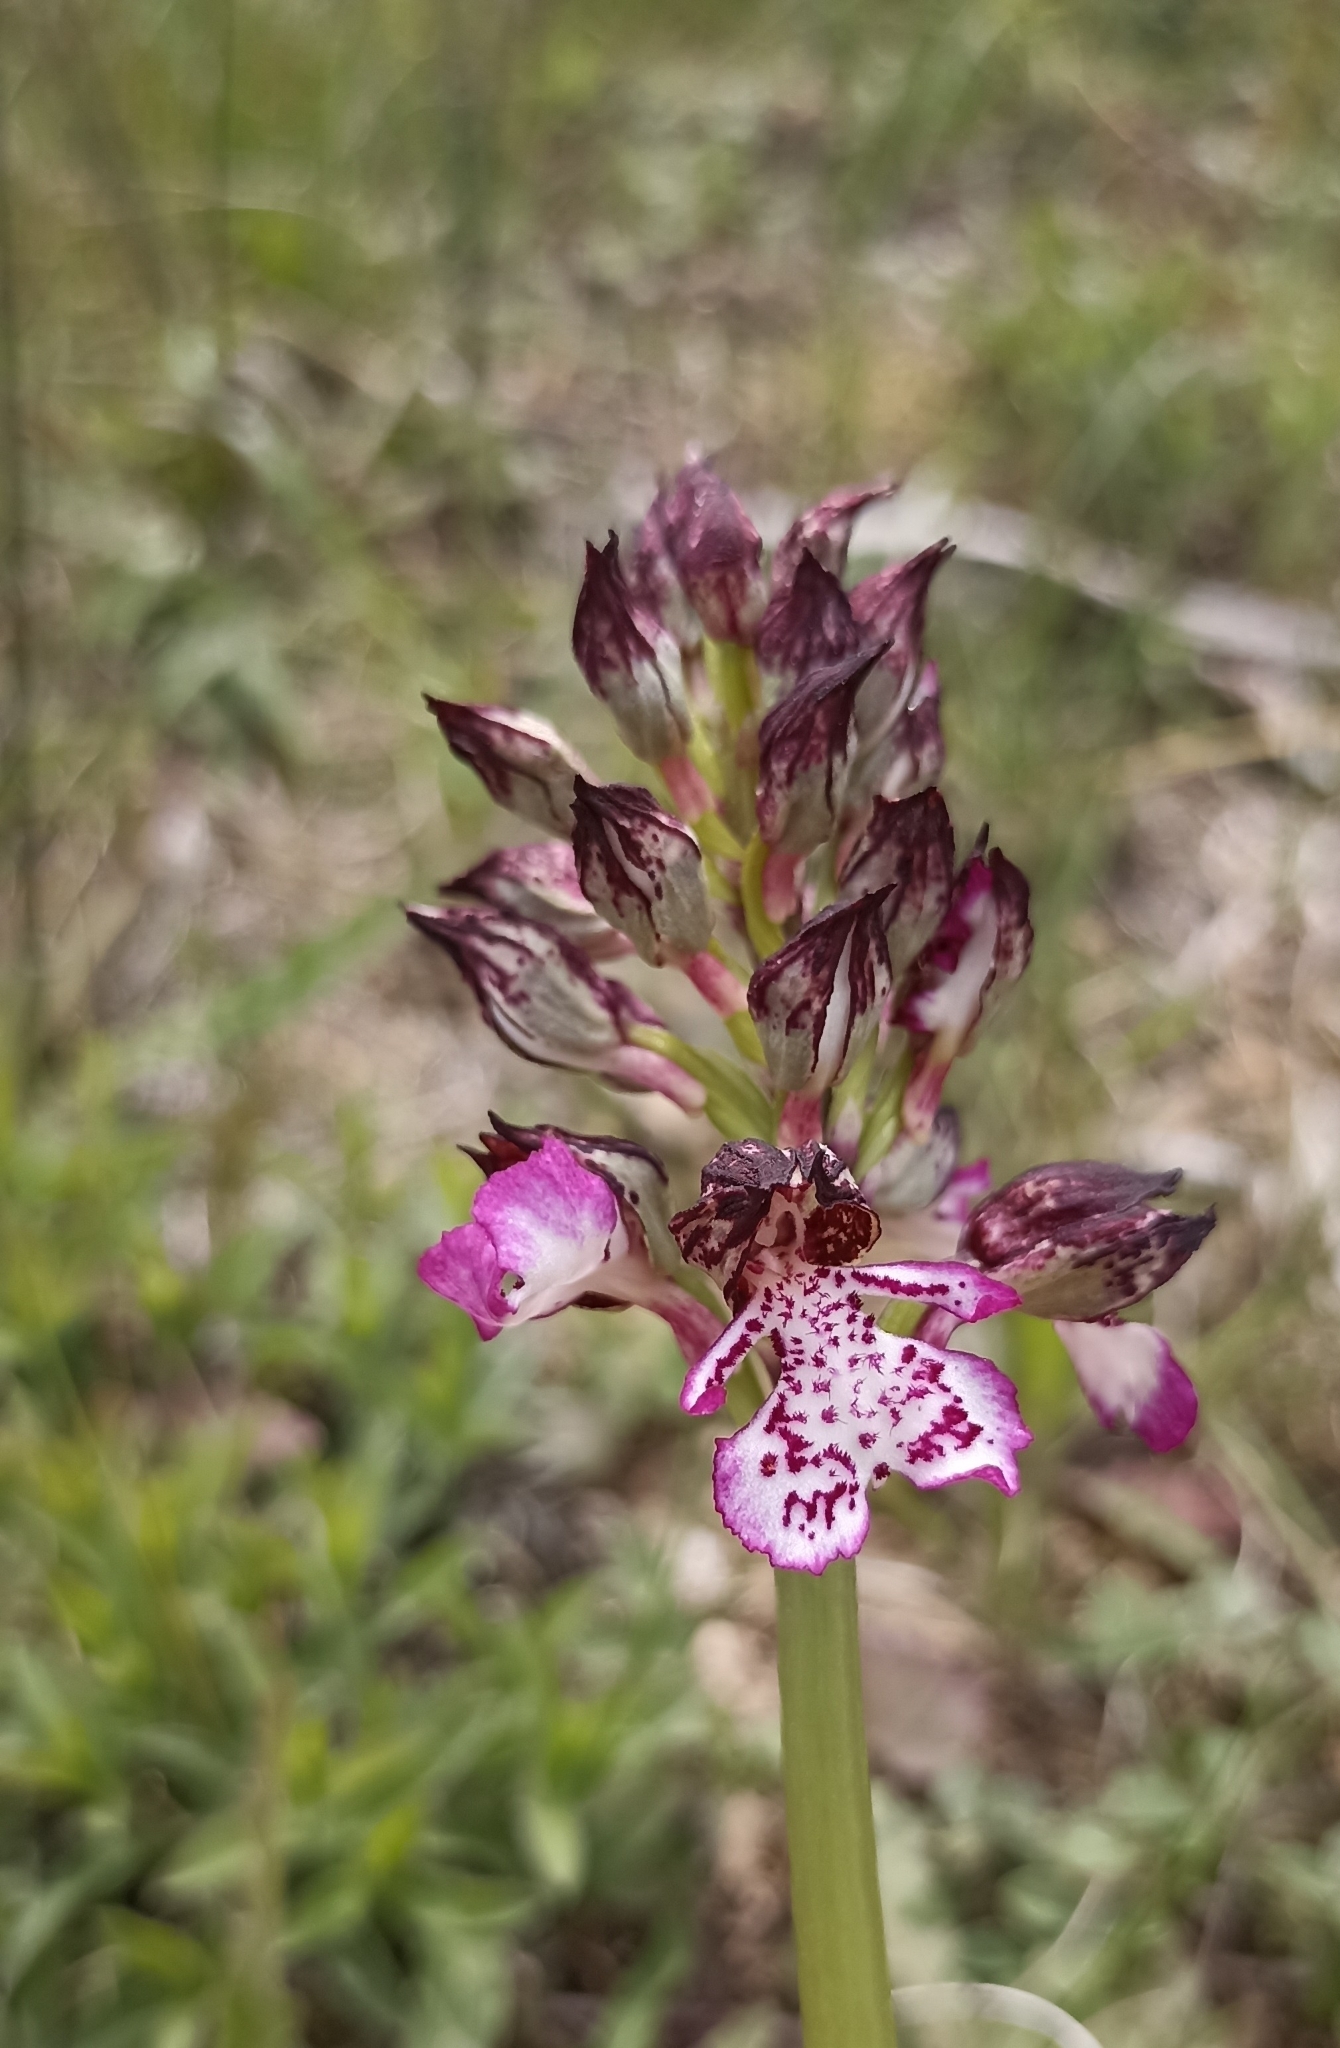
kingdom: Plantae
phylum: Tracheophyta
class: Liliopsida
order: Asparagales
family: Orchidaceae
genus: Orchis
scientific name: Orchis purpurea
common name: Lady orchid
